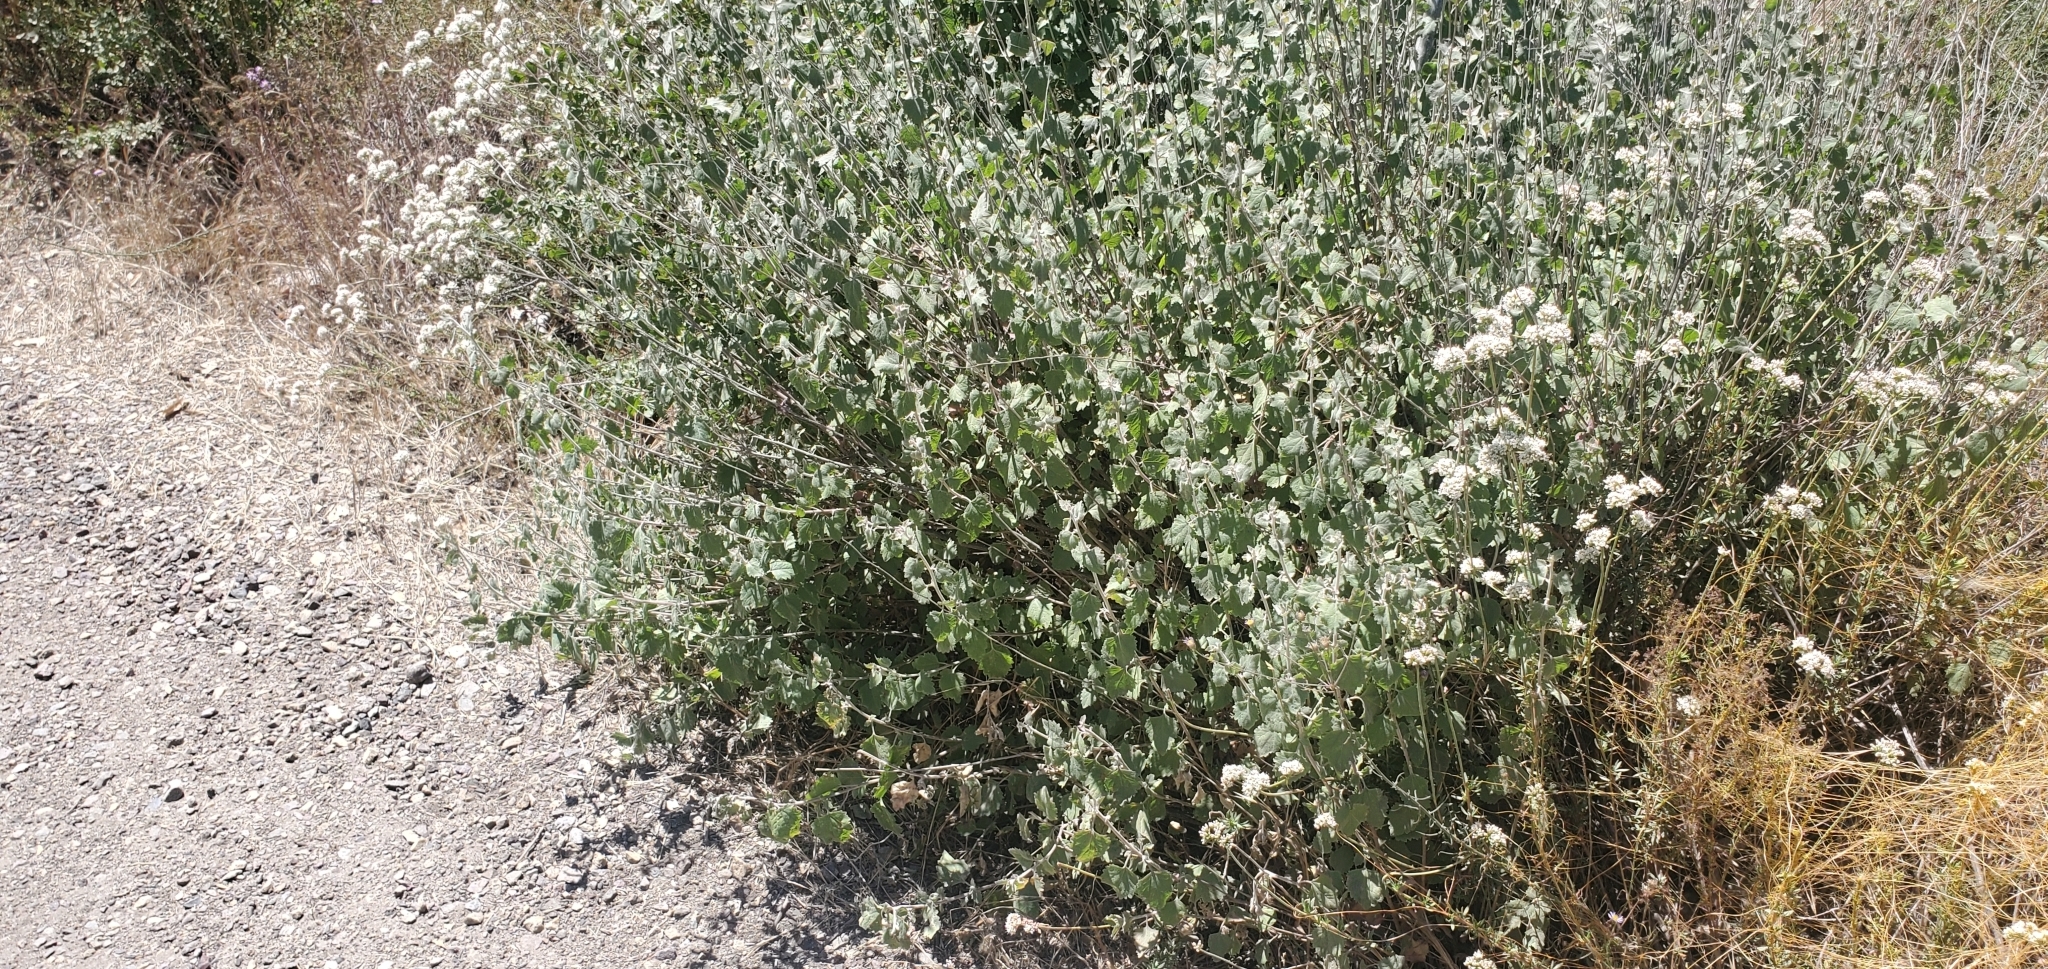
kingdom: Plantae
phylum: Tracheophyta
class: Magnoliopsida
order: Asterales
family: Asteraceae
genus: Brickellia
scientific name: Brickellia californica
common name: California brickellbush
